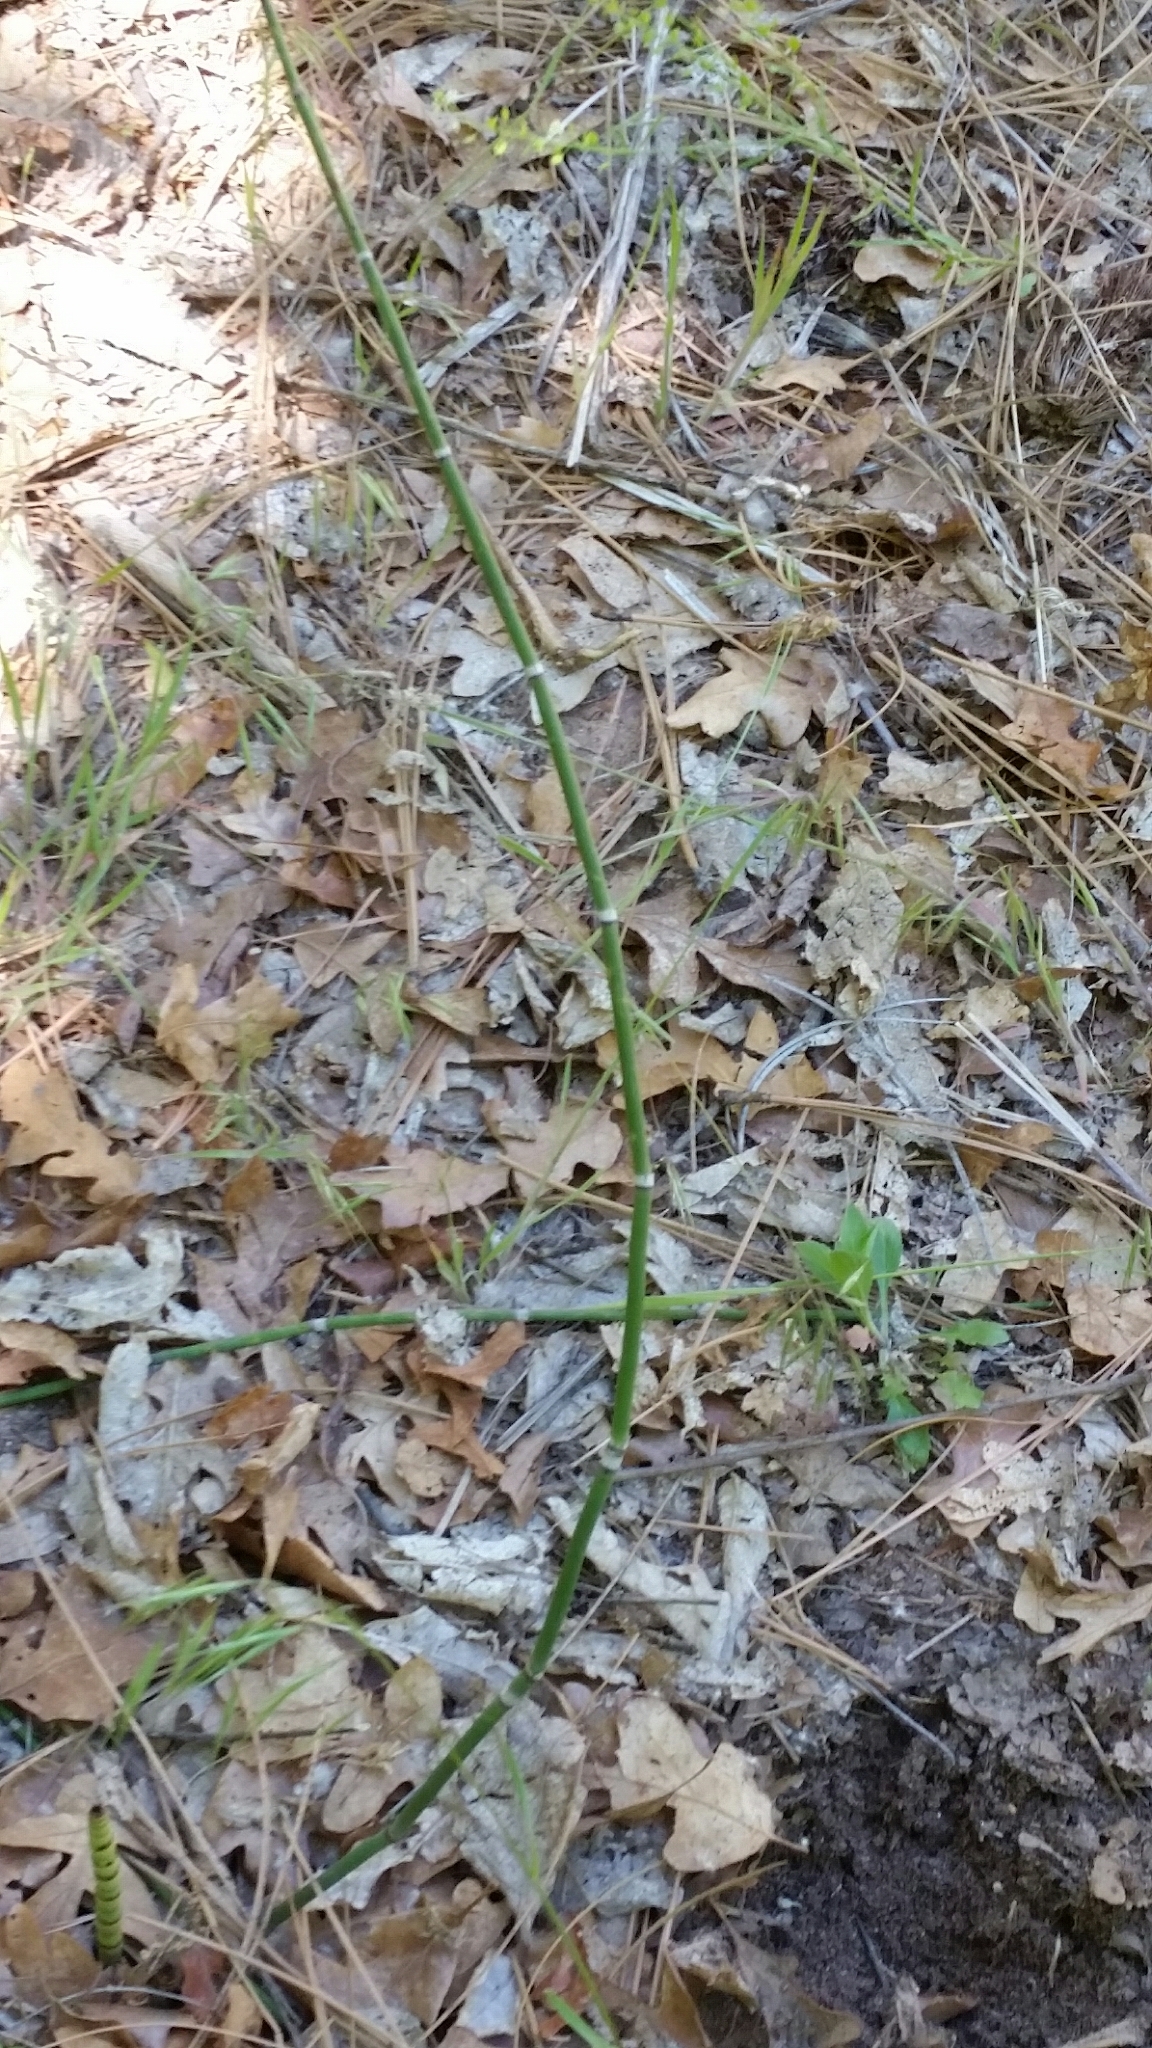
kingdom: Plantae
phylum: Tracheophyta
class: Polypodiopsida
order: Equisetales
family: Equisetaceae
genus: Equisetum
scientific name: Equisetum hyemale
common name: Rough horsetail
